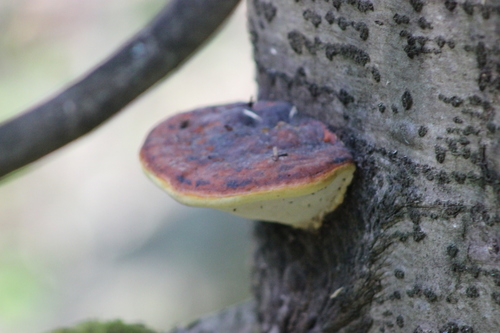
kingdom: Fungi
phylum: Basidiomycota
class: Agaricomycetes
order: Polyporales
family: Fomitopsidaceae
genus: Fomitopsis
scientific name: Fomitopsis pinicola
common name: Red-belted bracket
